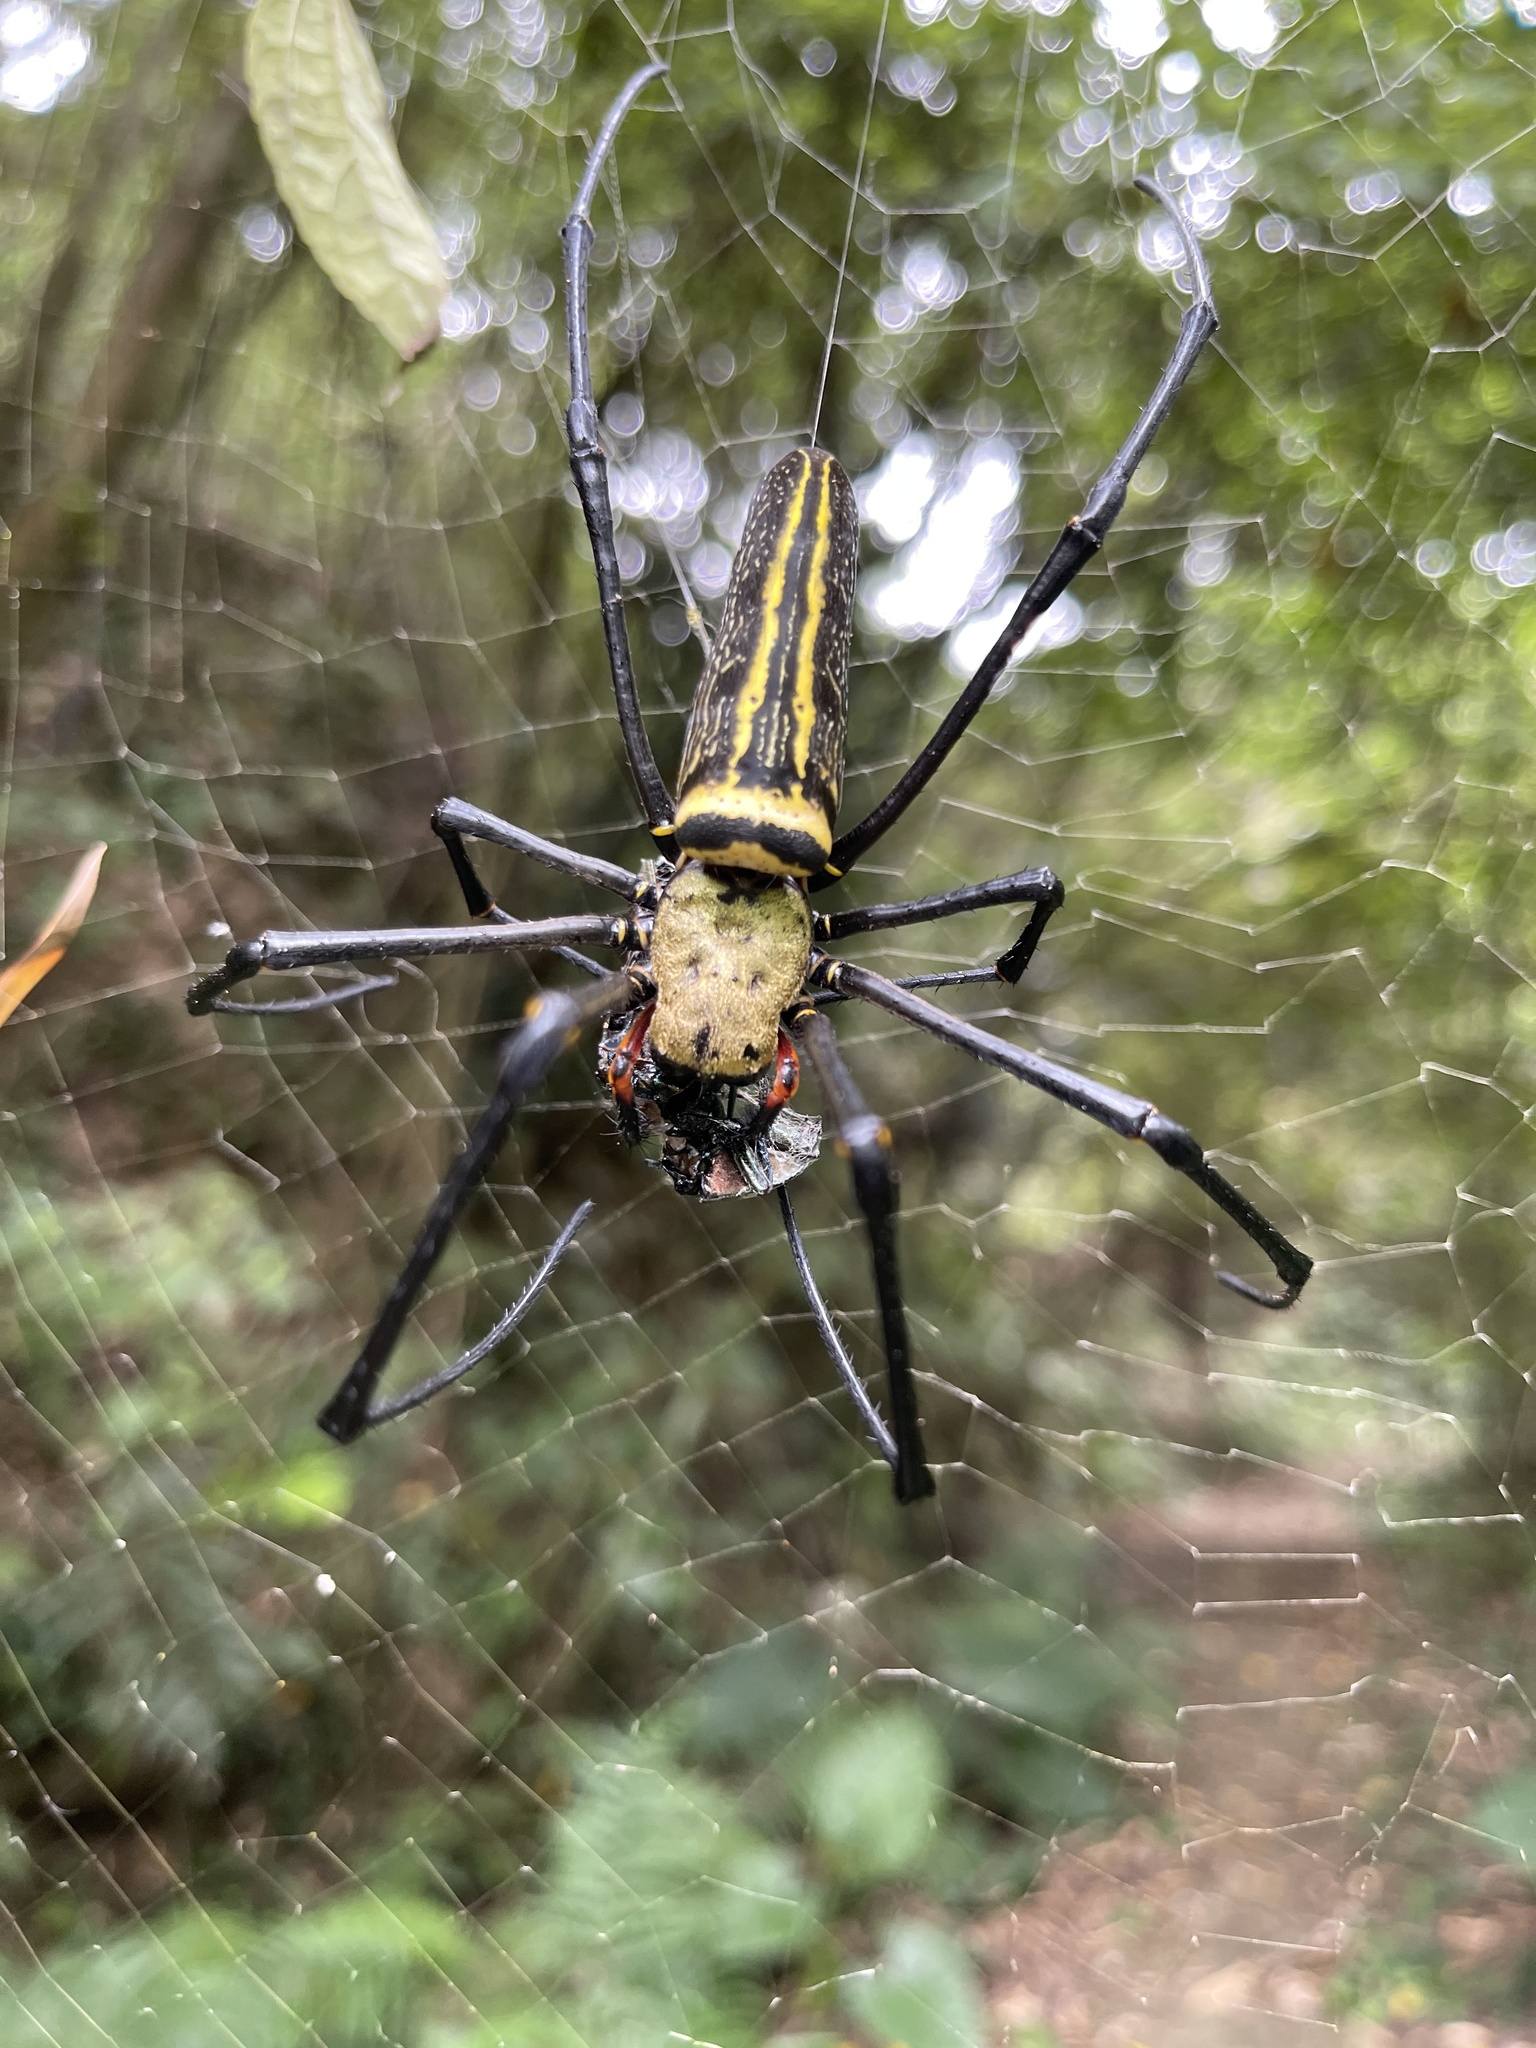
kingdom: Animalia
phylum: Arthropoda
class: Arachnida
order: Araneae
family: Araneidae
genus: Nephila
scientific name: Nephila pilipes
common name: Giant golden orb weaver
